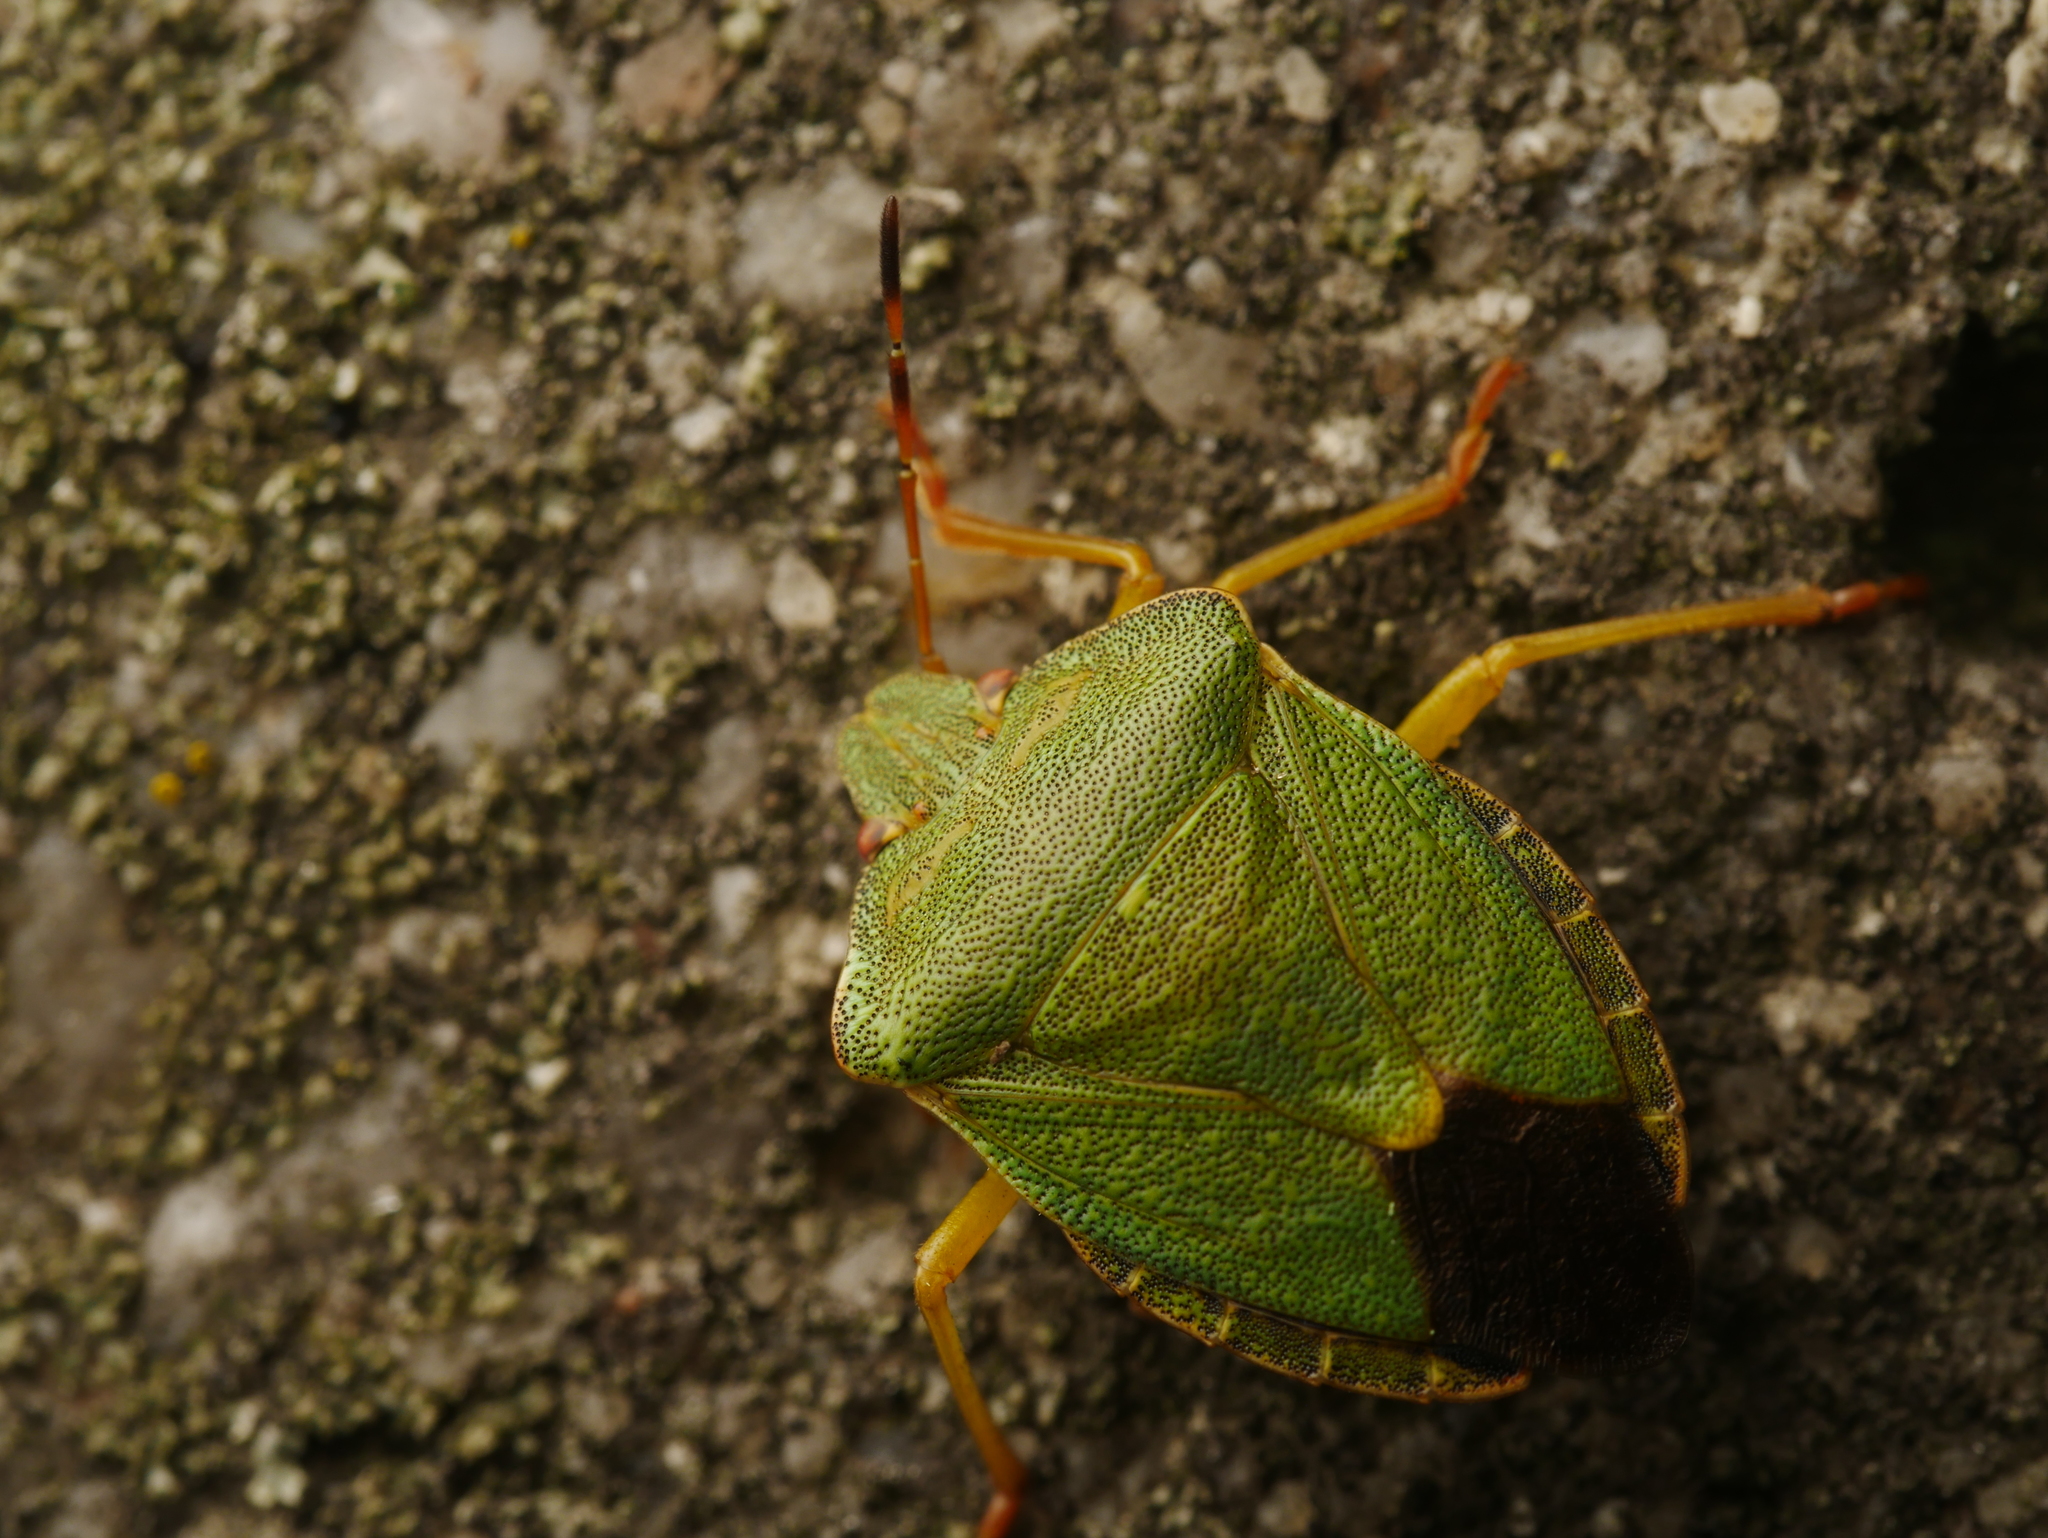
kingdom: Animalia
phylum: Arthropoda
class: Insecta
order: Hemiptera
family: Pentatomidae
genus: Palomena
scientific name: Palomena prasina
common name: Green shieldbug
